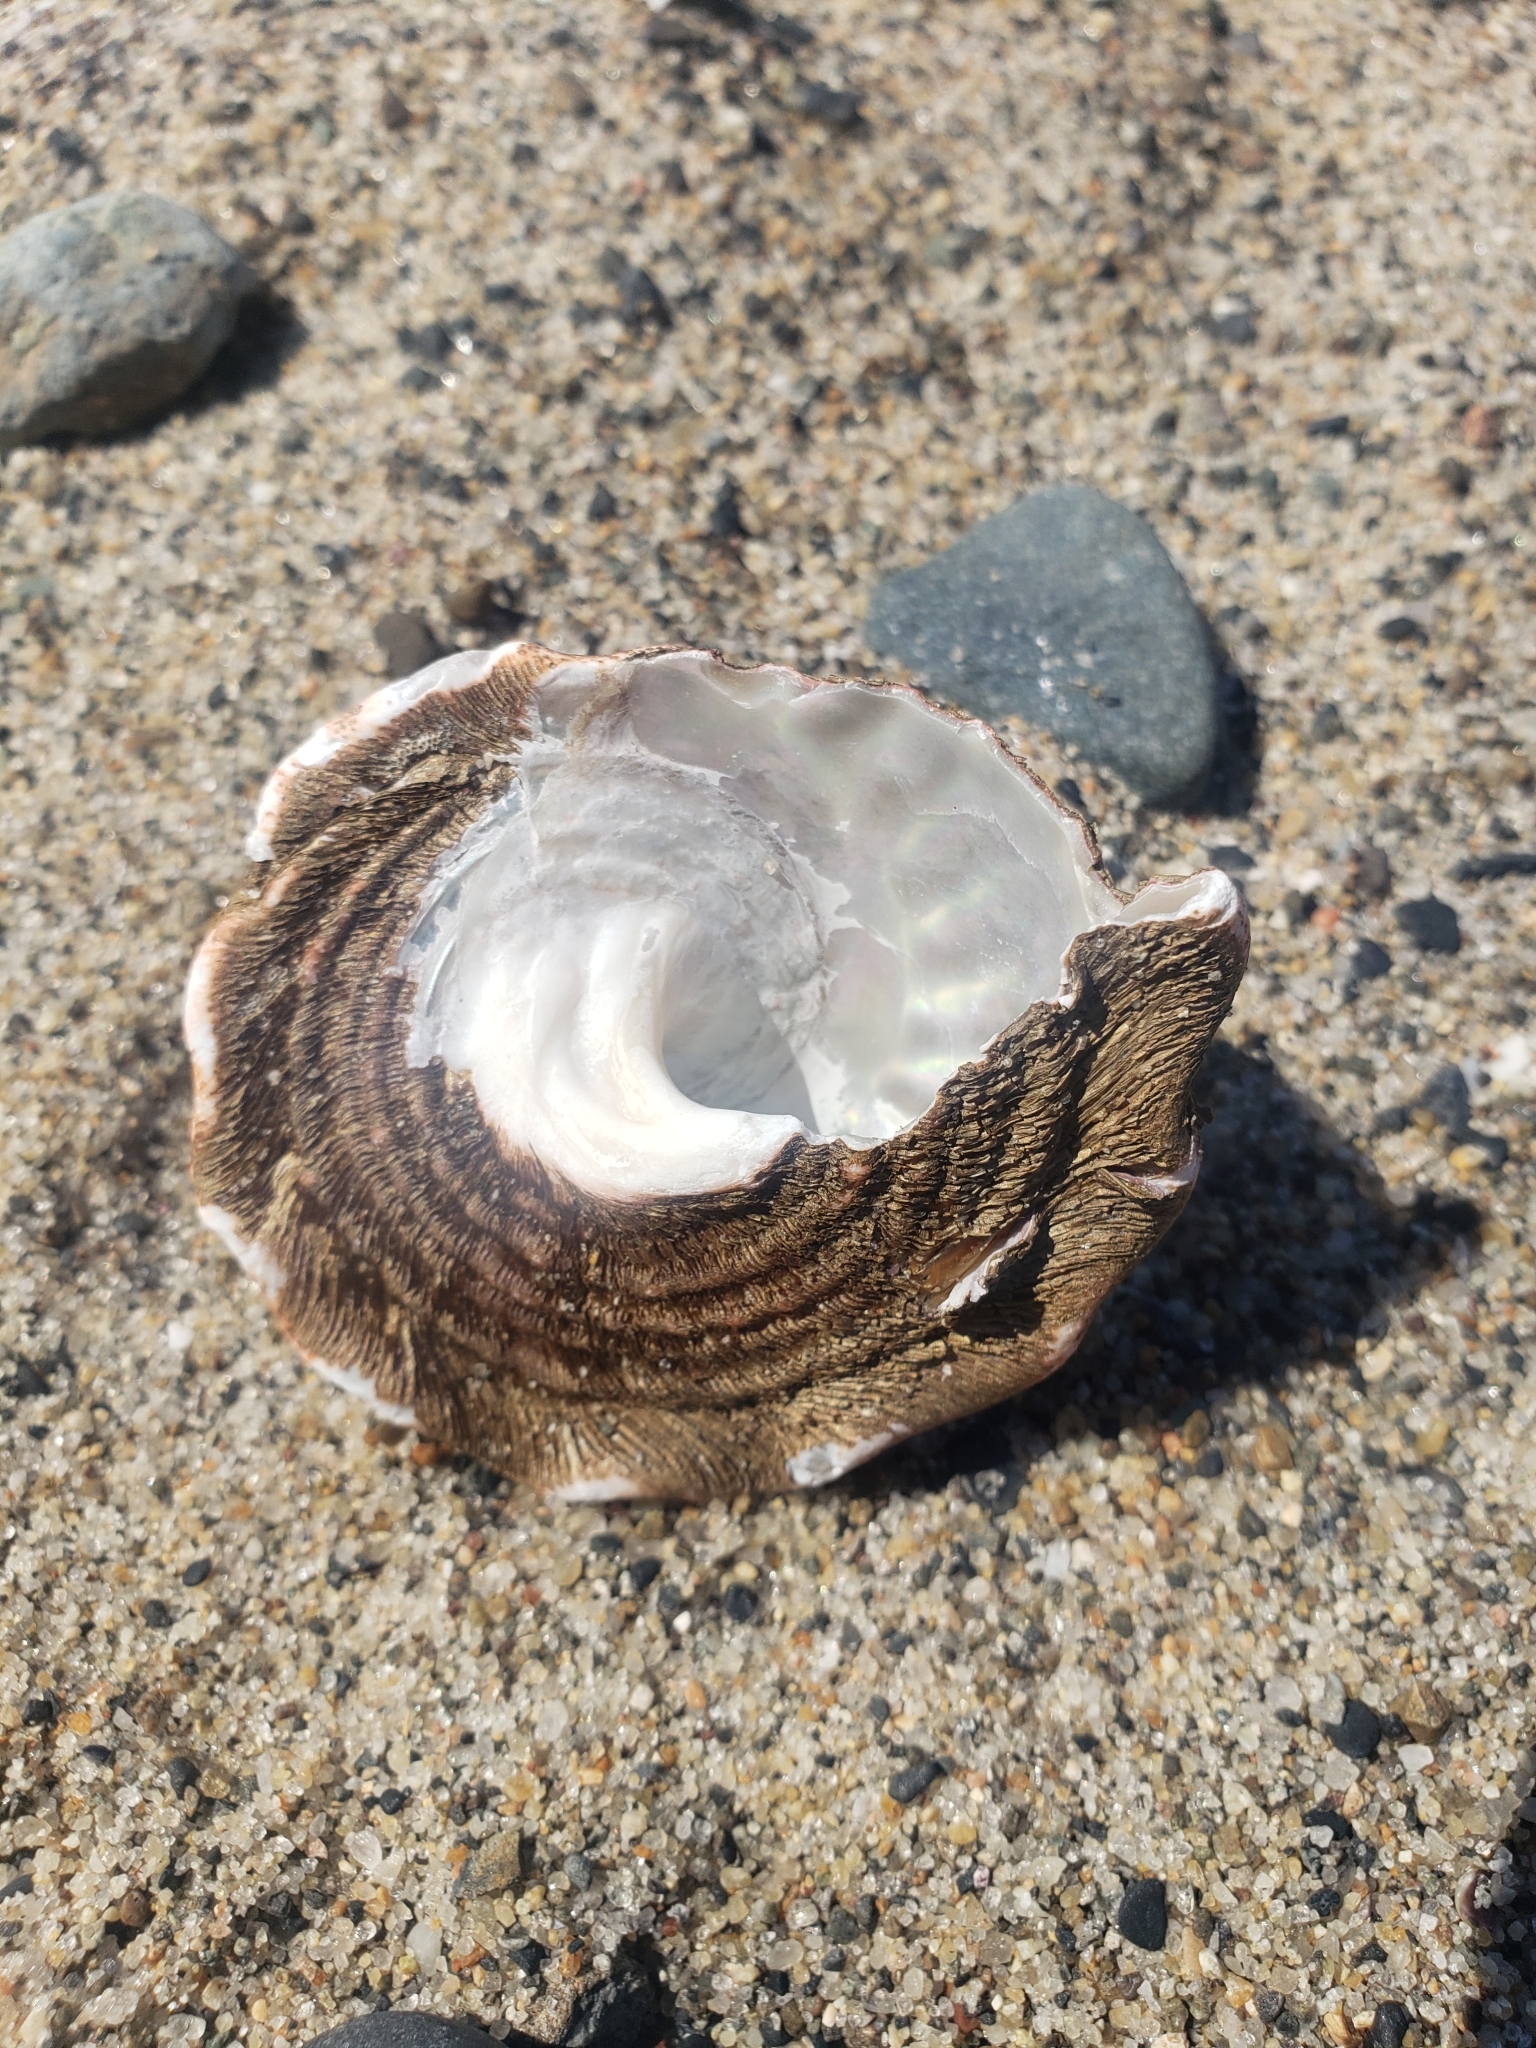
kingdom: Animalia
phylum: Mollusca
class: Gastropoda
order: Trochida
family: Turbinidae
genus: Megastraea
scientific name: Megastraea undosa
